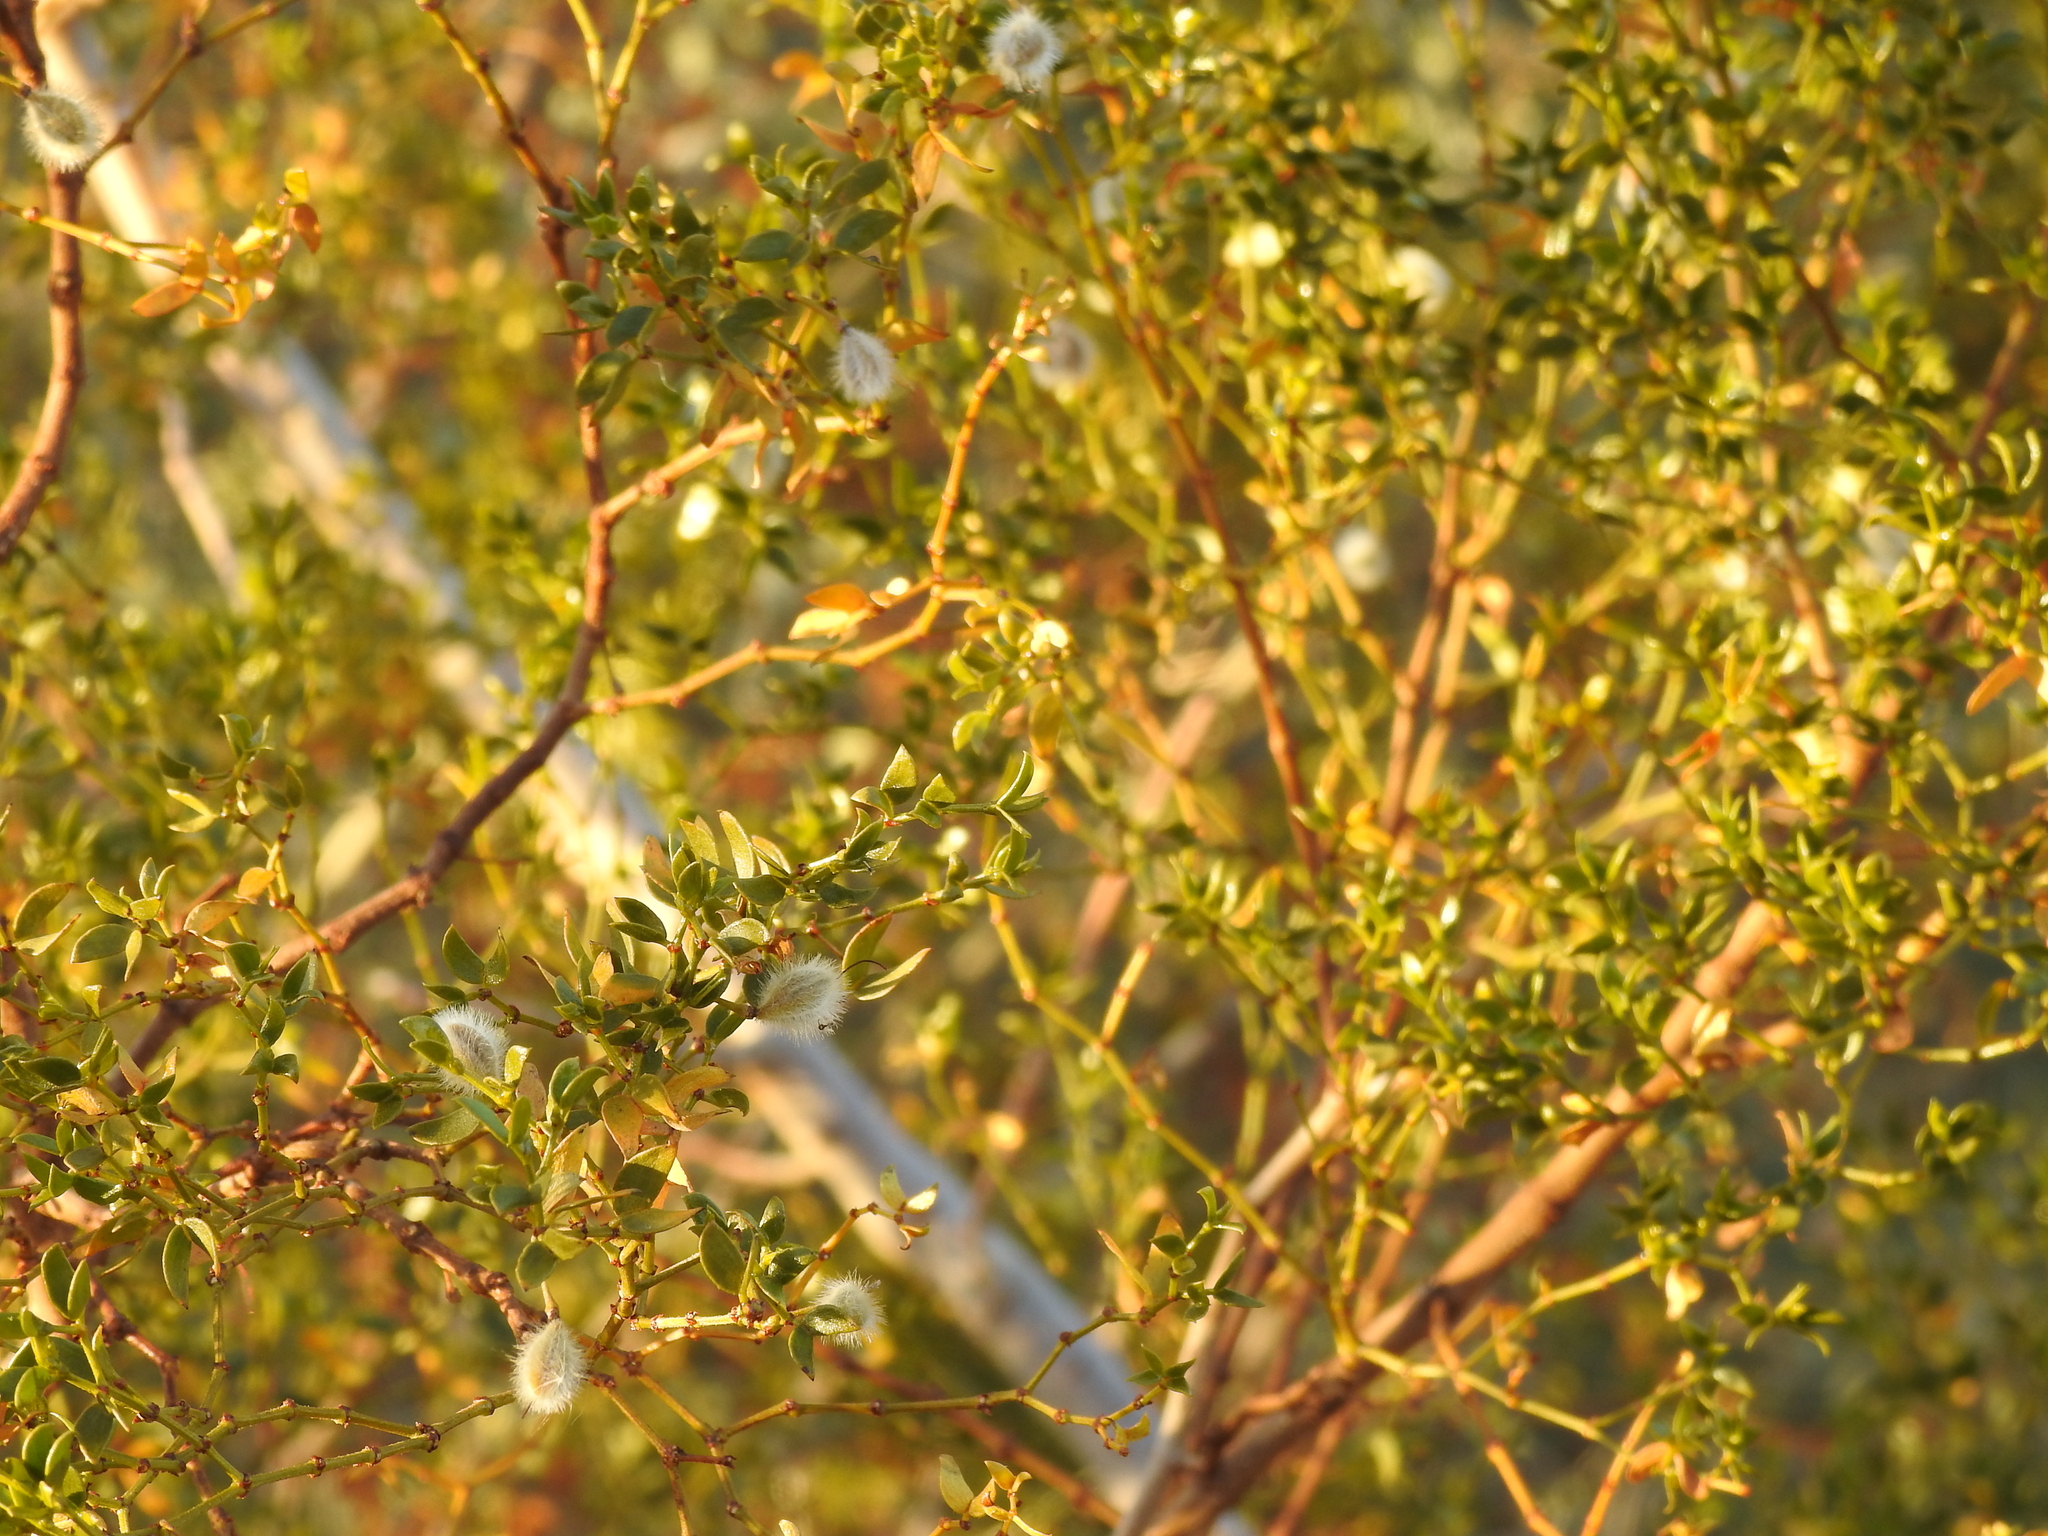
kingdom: Plantae
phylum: Tracheophyta
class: Magnoliopsida
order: Zygophyllales
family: Zygophyllaceae
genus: Larrea
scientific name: Larrea tridentata
